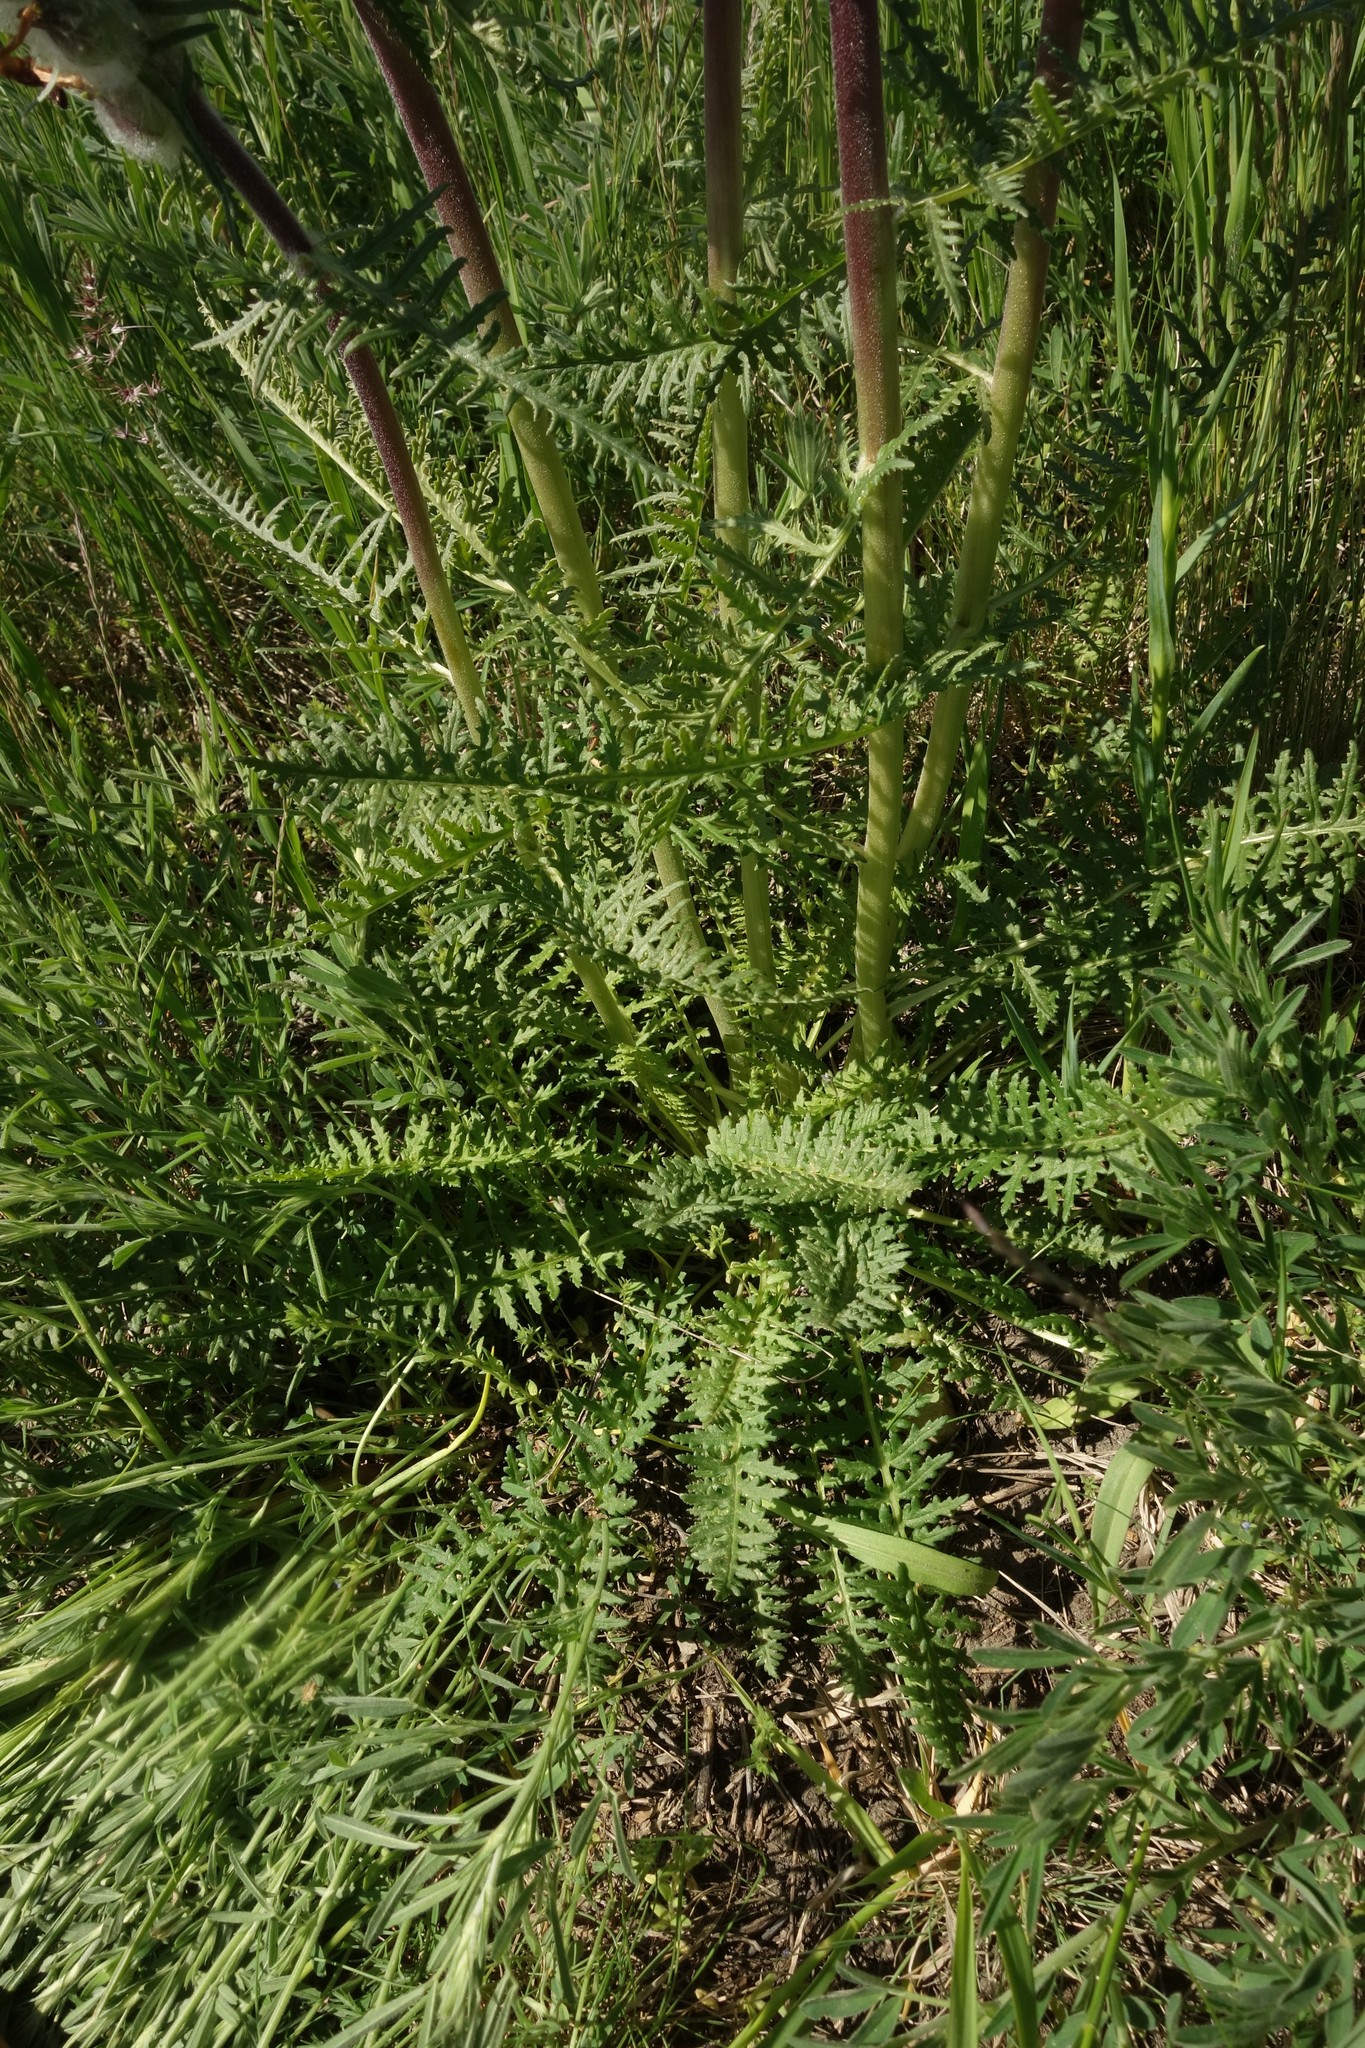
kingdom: Plantae
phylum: Tracheophyta
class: Magnoliopsida
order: Lamiales
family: Orobanchaceae
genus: Pedicularis
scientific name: Pedicularis dasystachys
